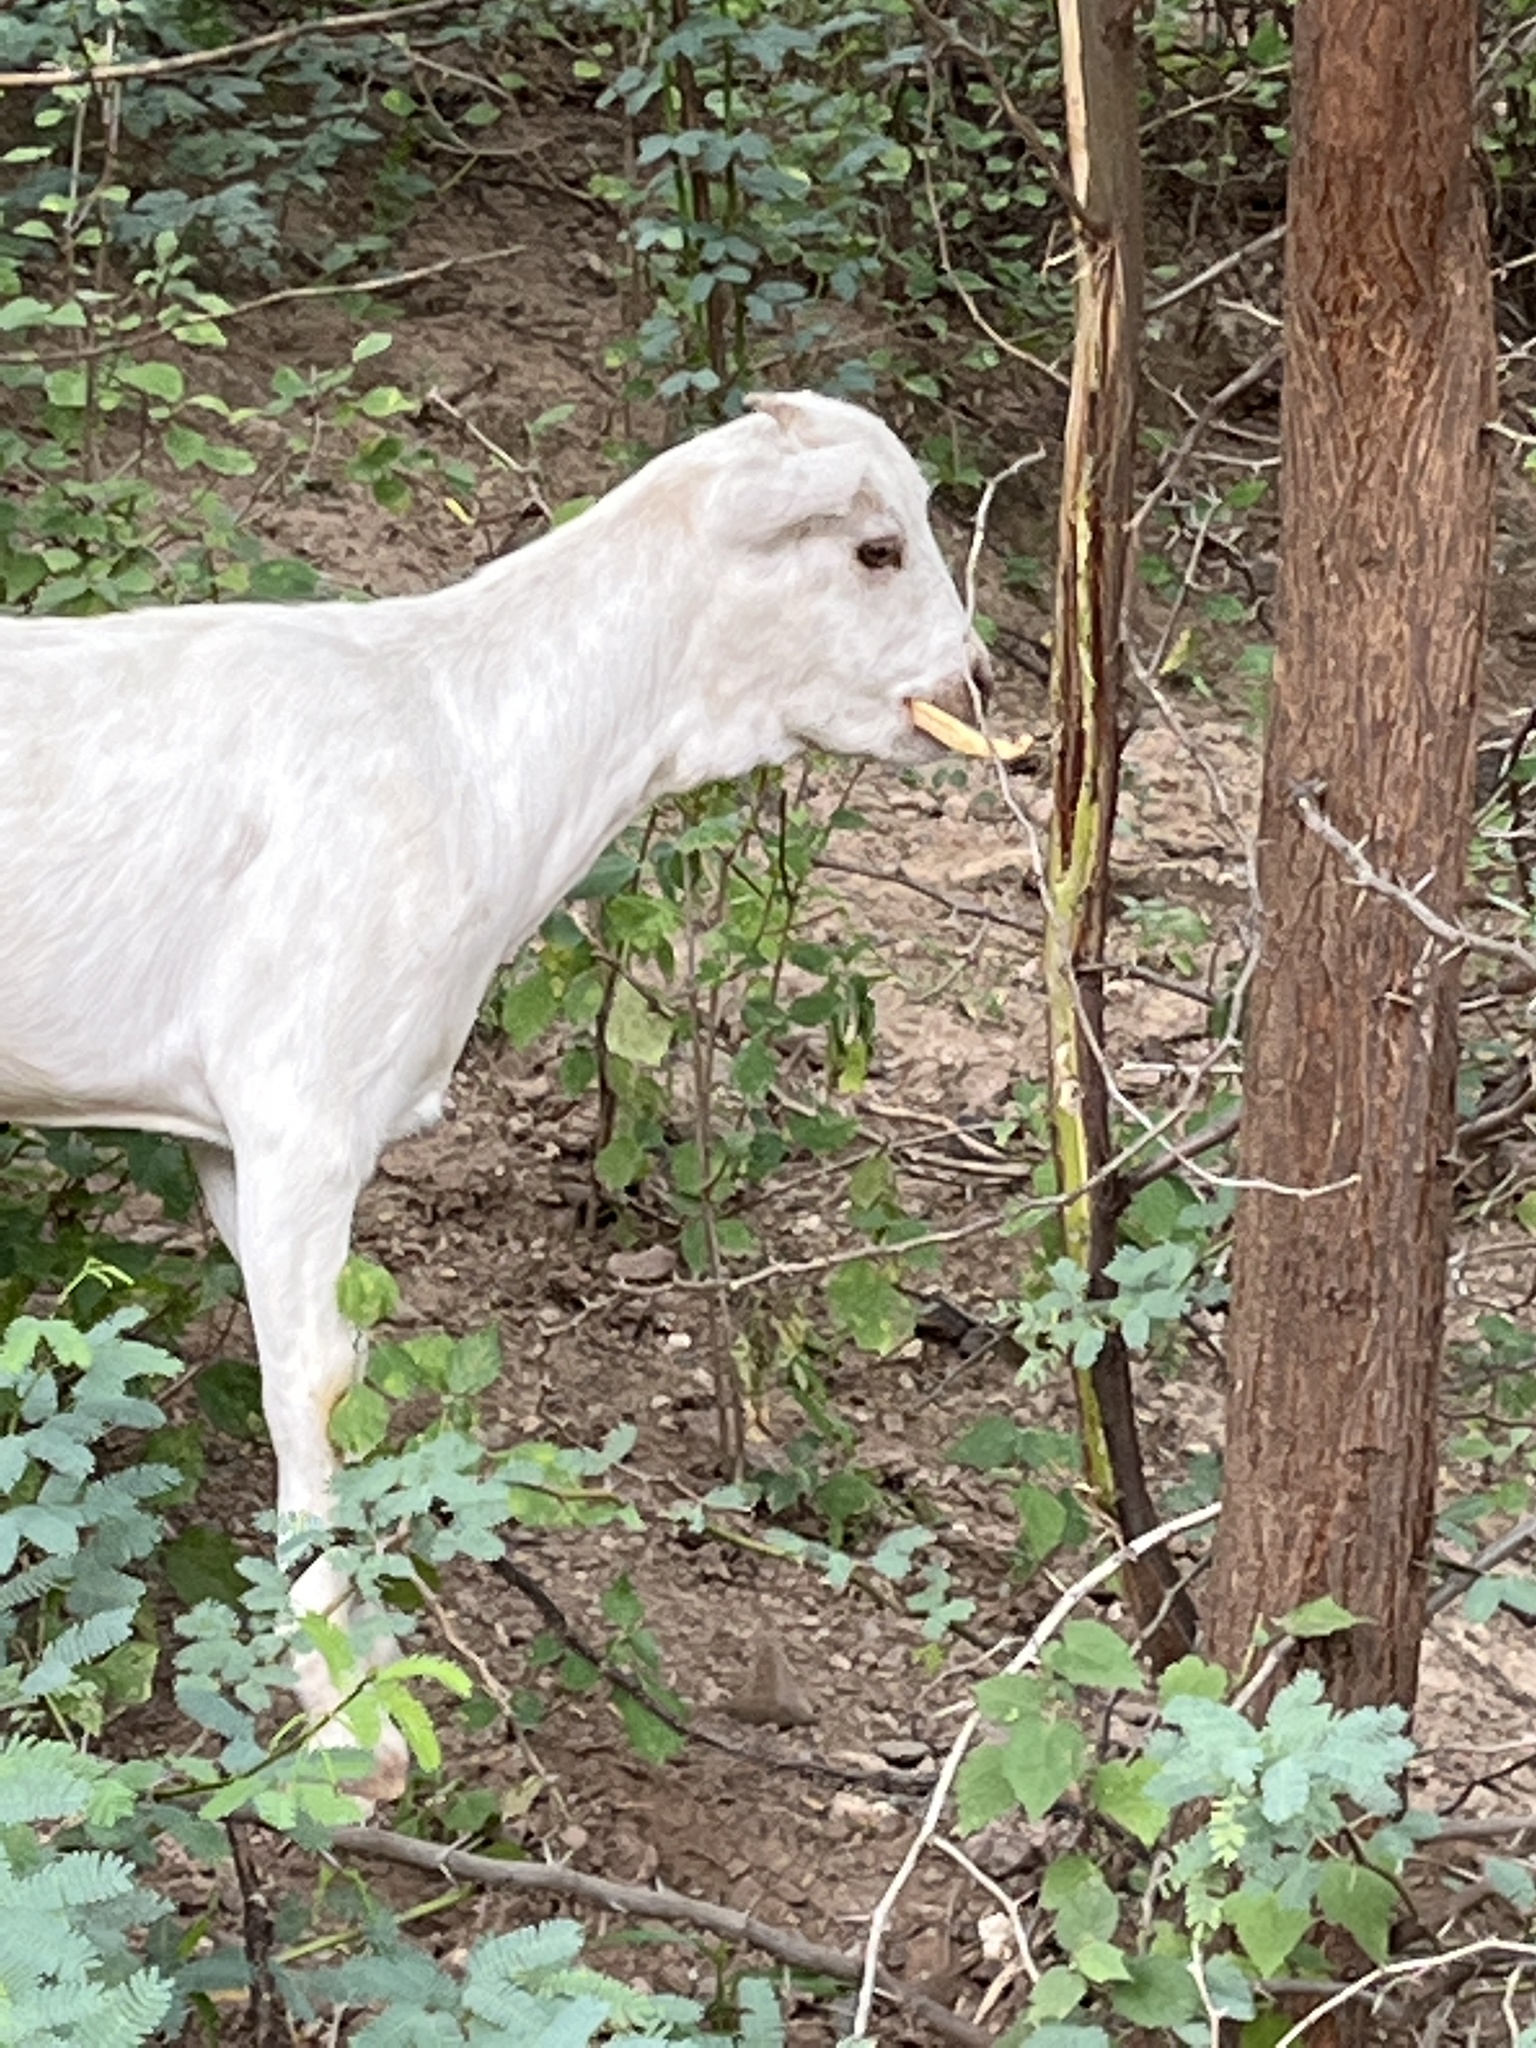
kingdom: Animalia
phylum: Chordata
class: Mammalia
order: Artiodactyla
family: Bovidae
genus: Capra
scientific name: Capra hircus
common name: Domestic goat
